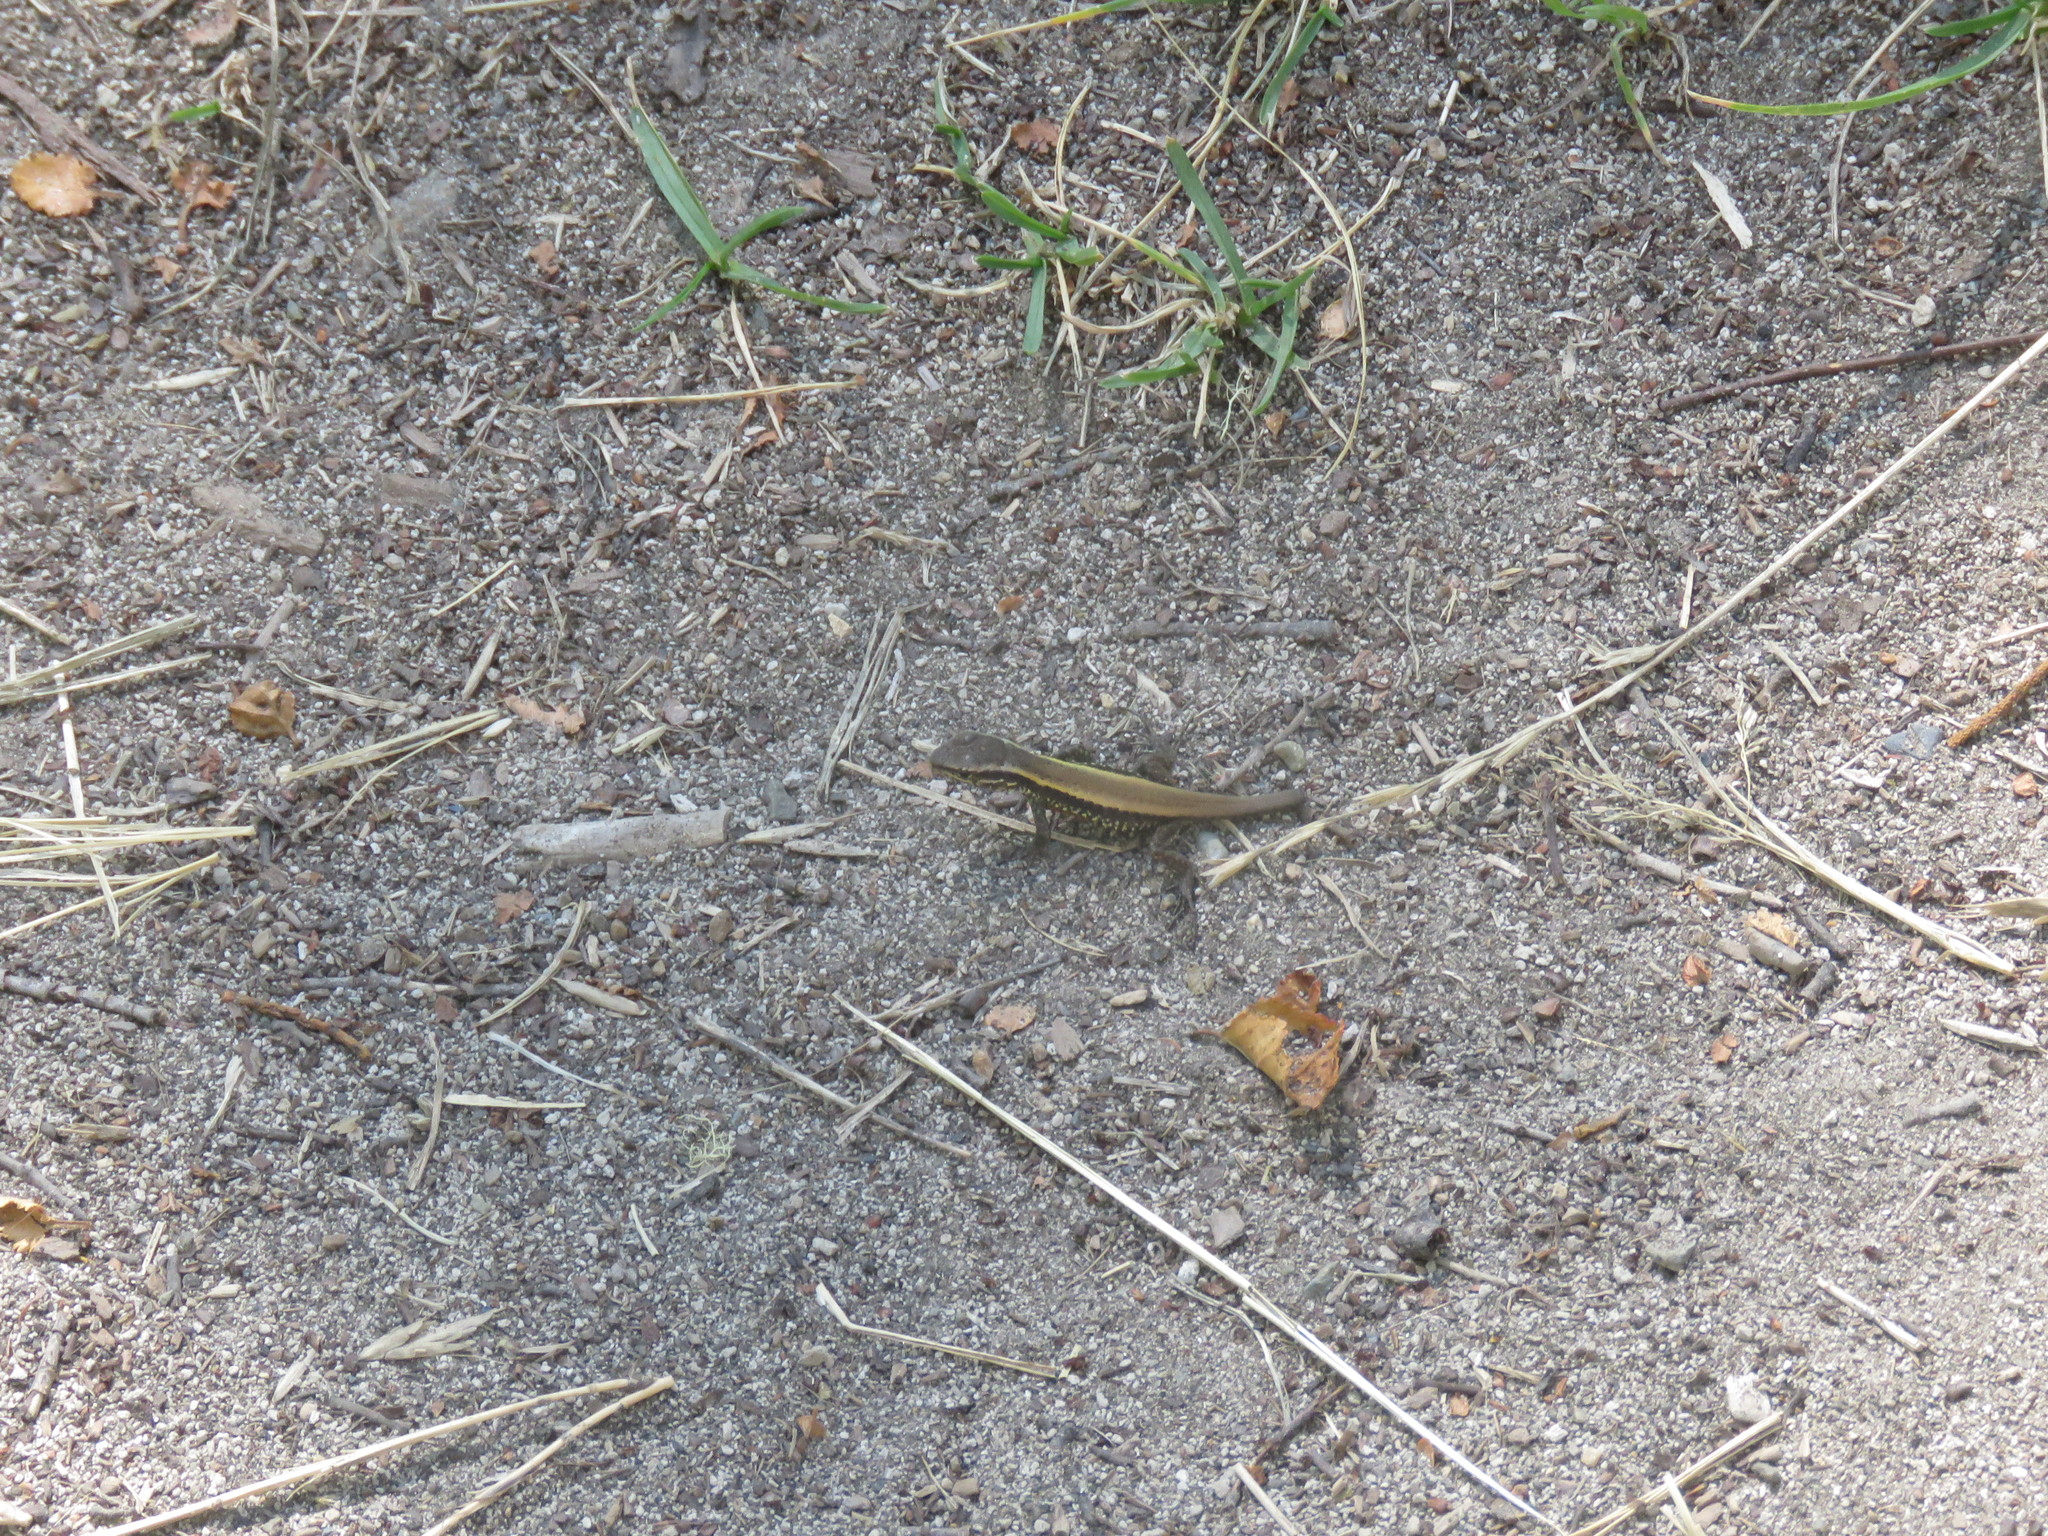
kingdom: Animalia
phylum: Chordata
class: Squamata
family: Liolaemidae
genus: Liolaemus
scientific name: Liolaemus pictus
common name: Painted tree iguana
